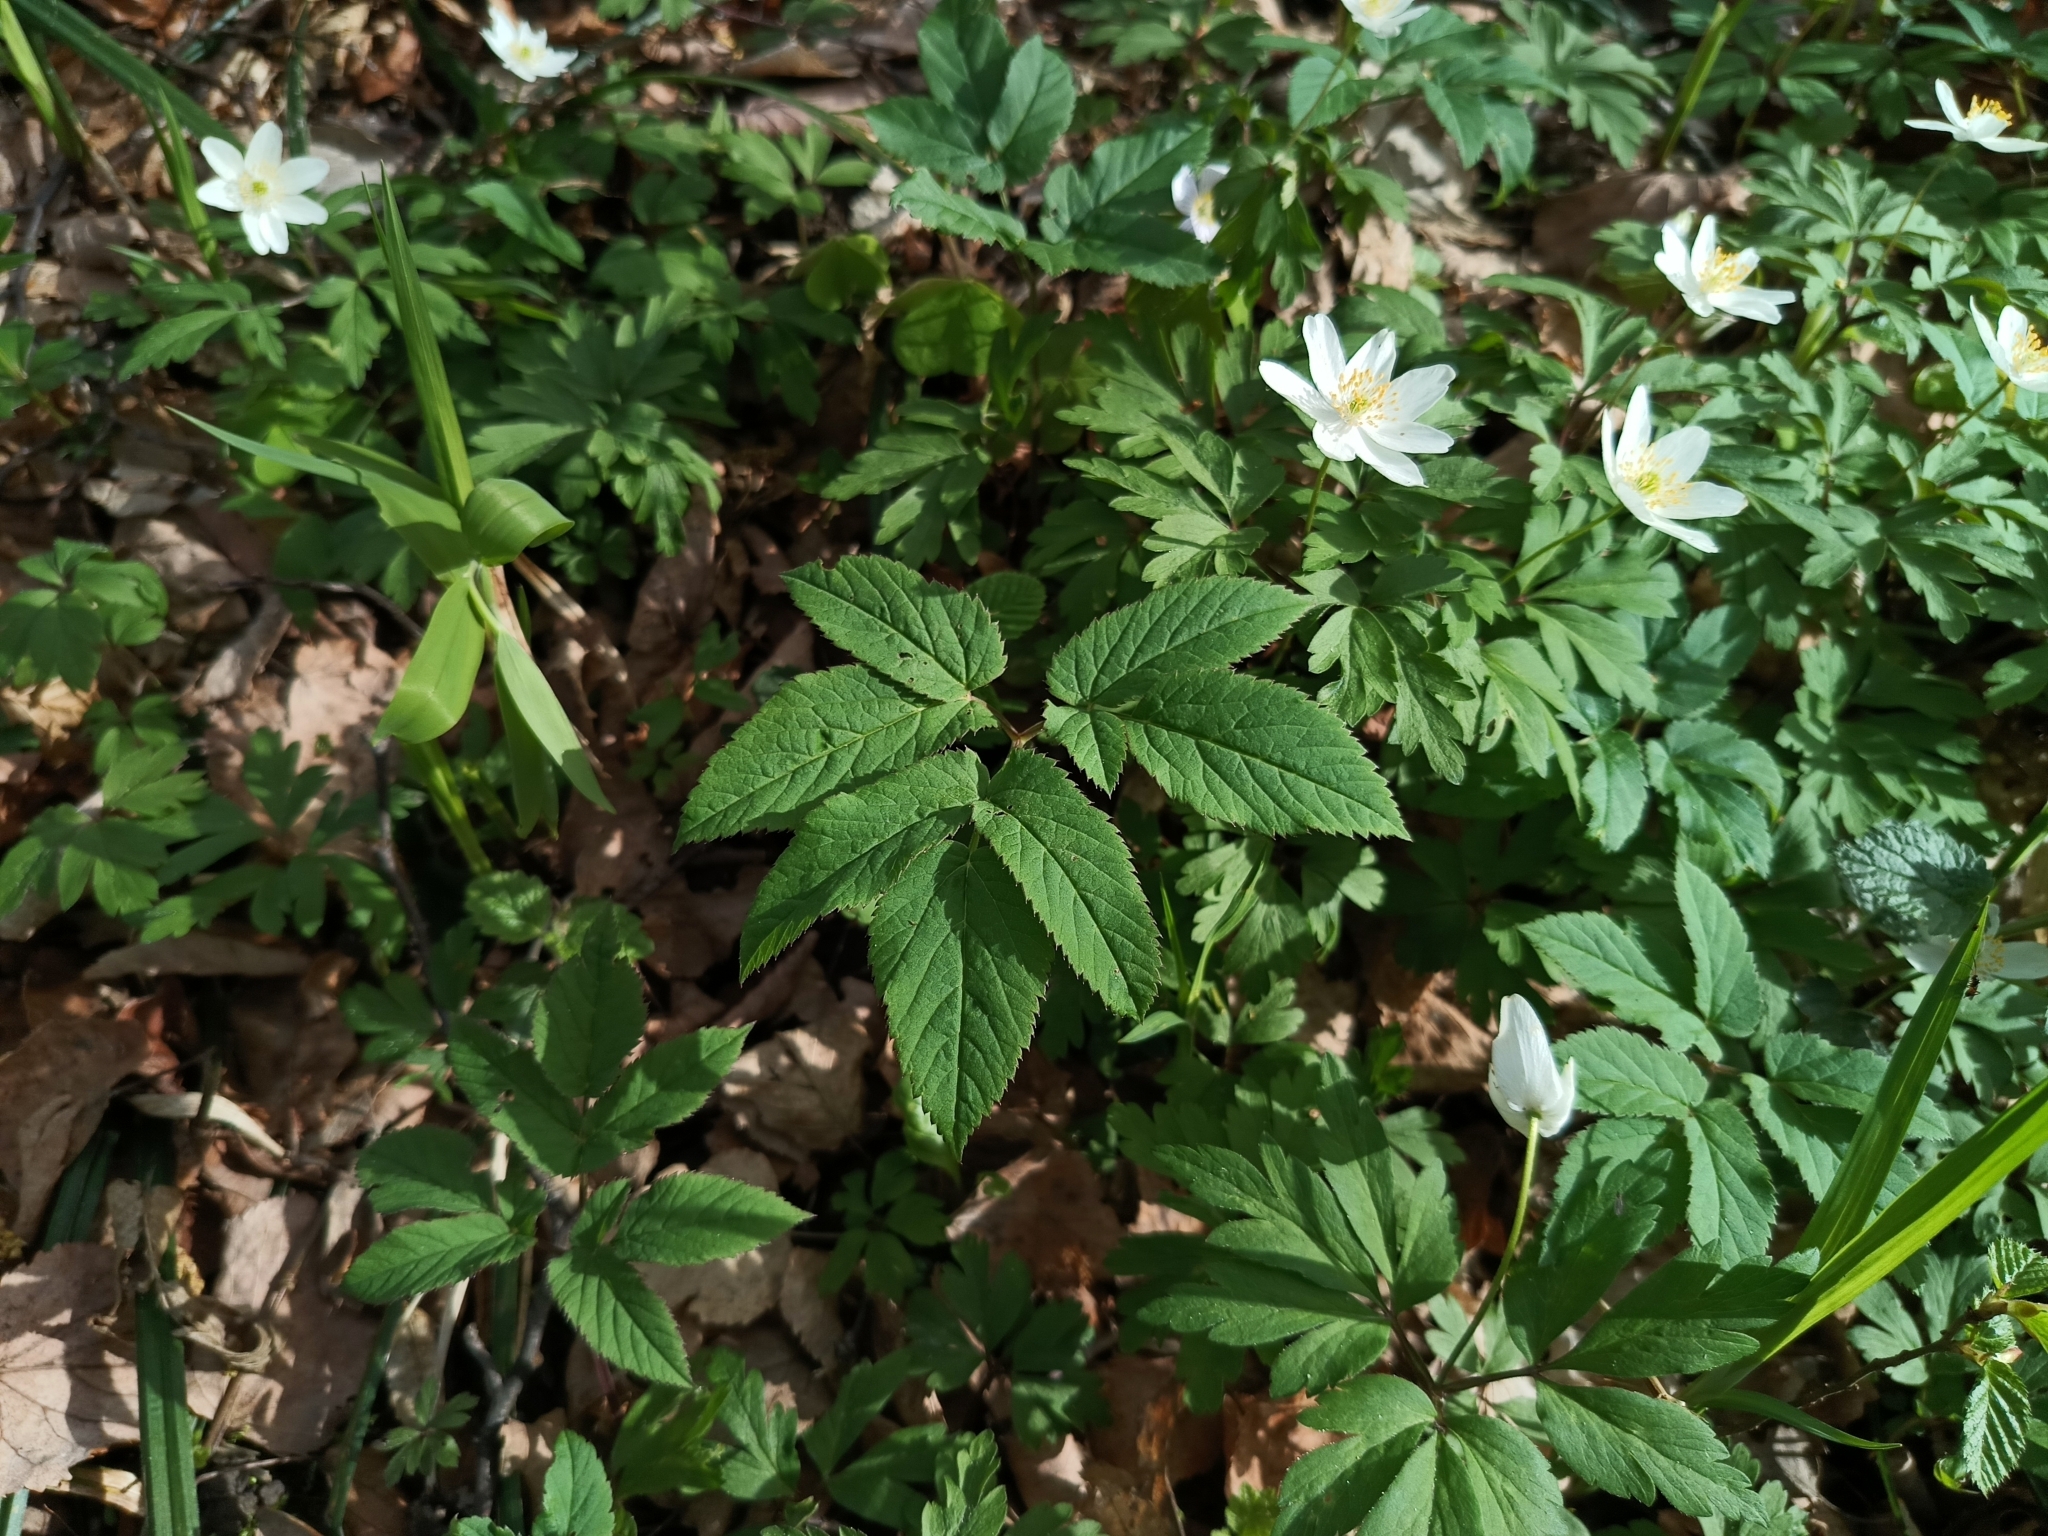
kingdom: Plantae
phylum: Tracheophyta
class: Magnoliopsida
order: Apiales
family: Apiaceae
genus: Aegopodium
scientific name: Aegopodium podagraria
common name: Ground-elder
